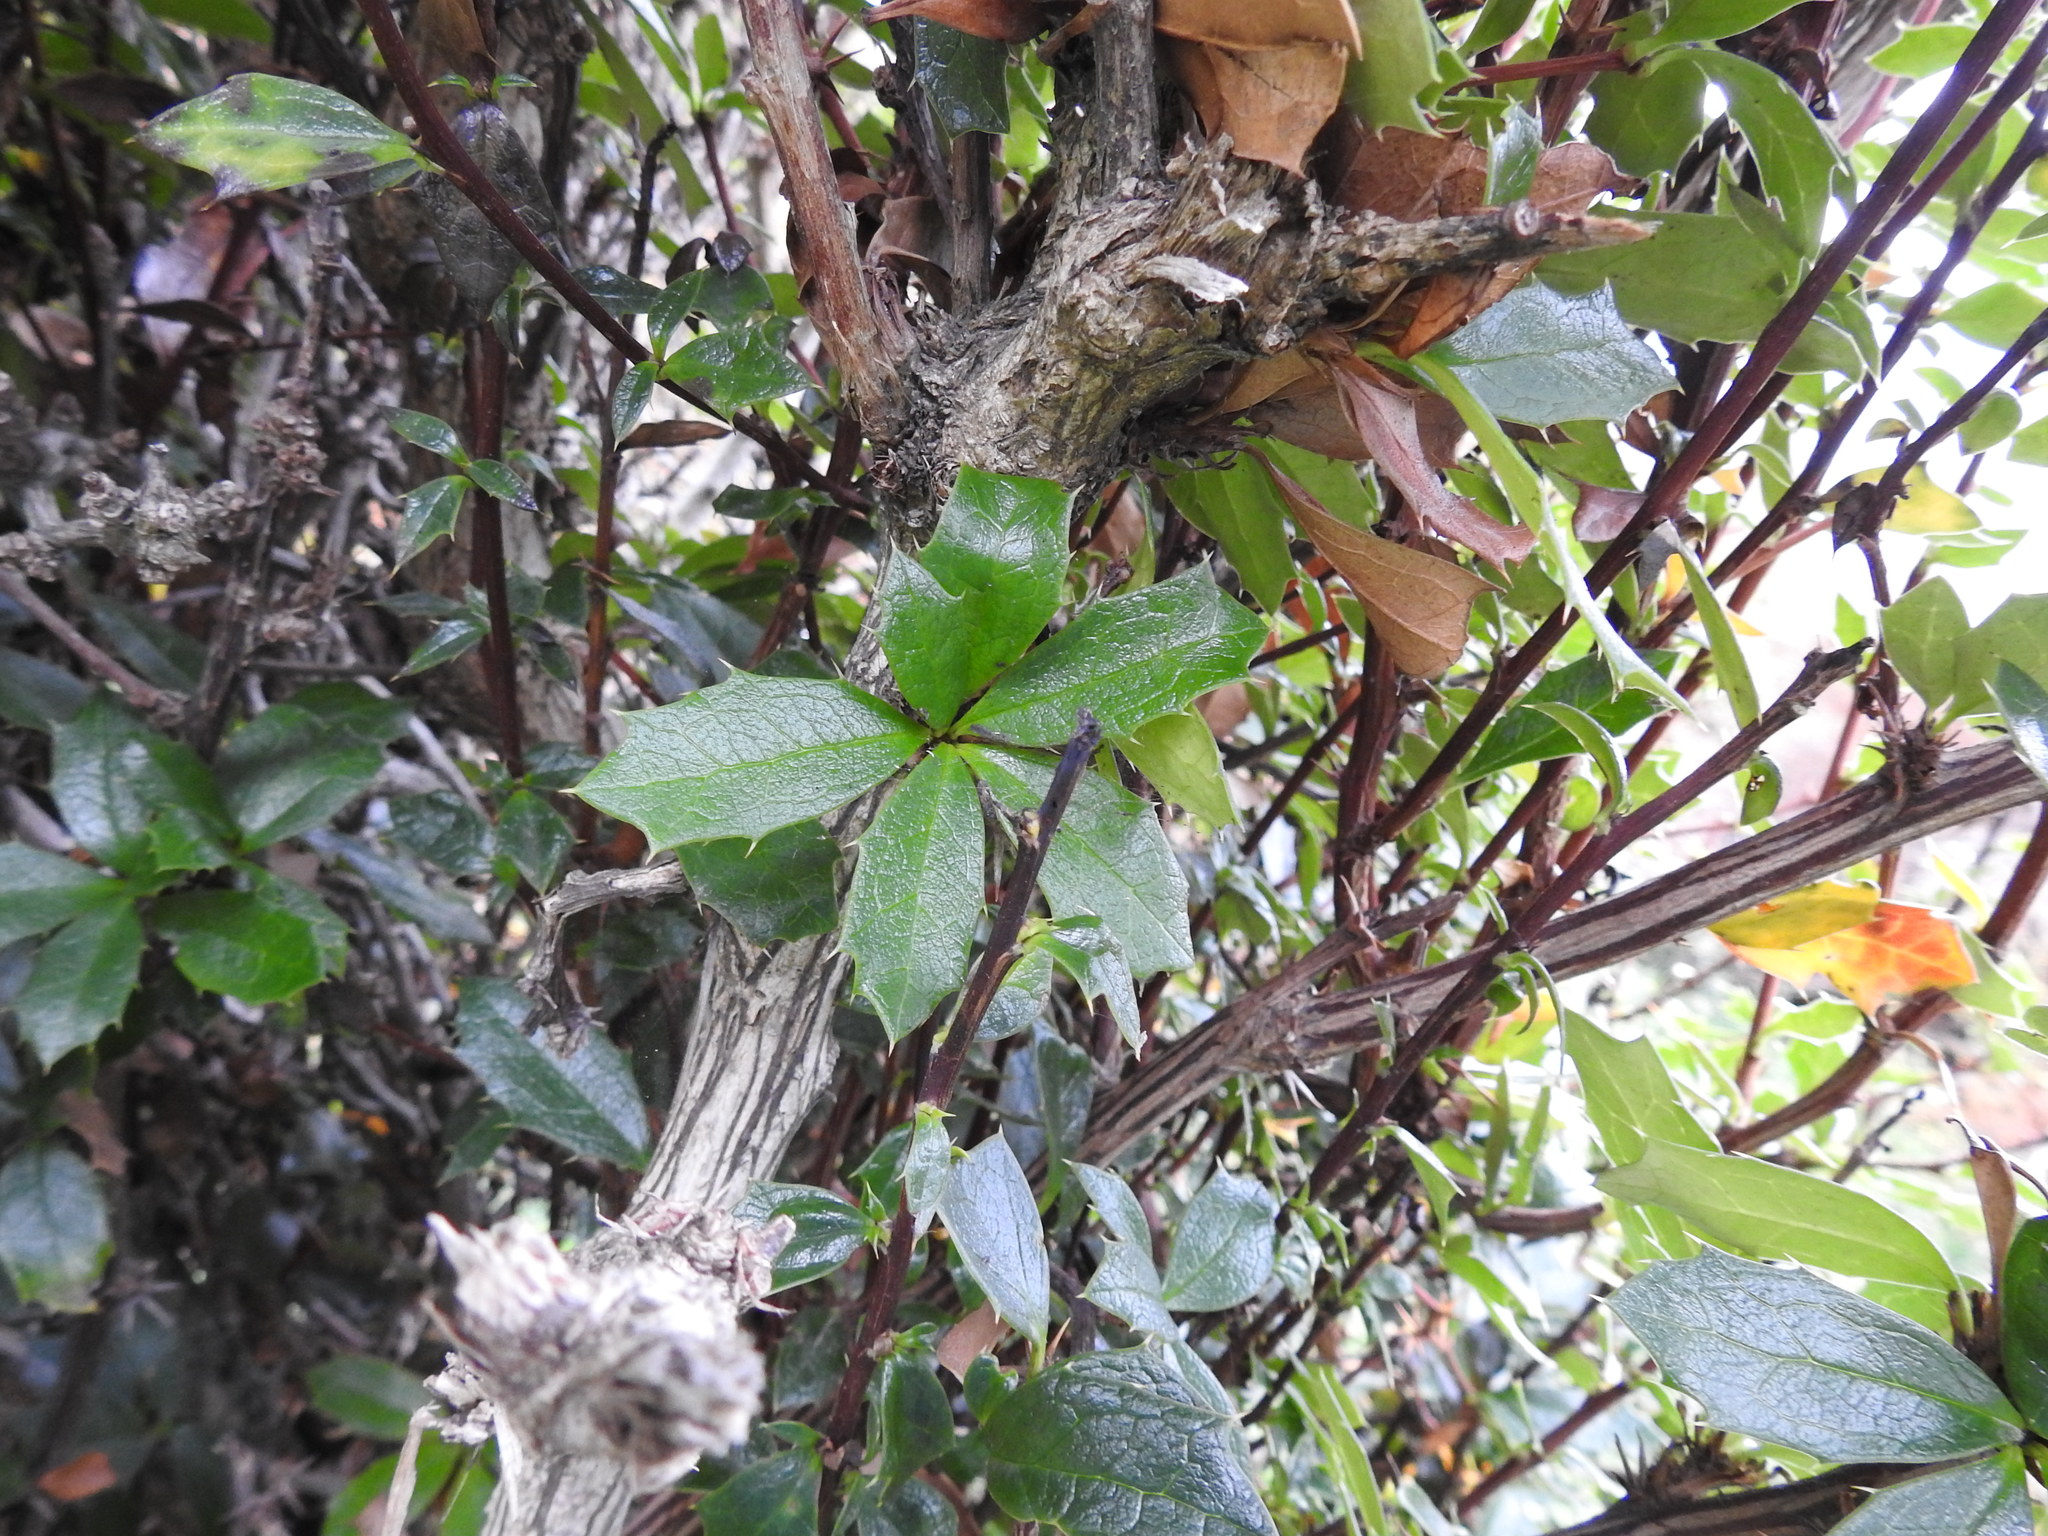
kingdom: Plantae
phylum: Tracheophyta
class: Magnoliopsida
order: Ranunculales
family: Berberidaceae
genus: Berberis
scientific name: Berberis ilicifolia
